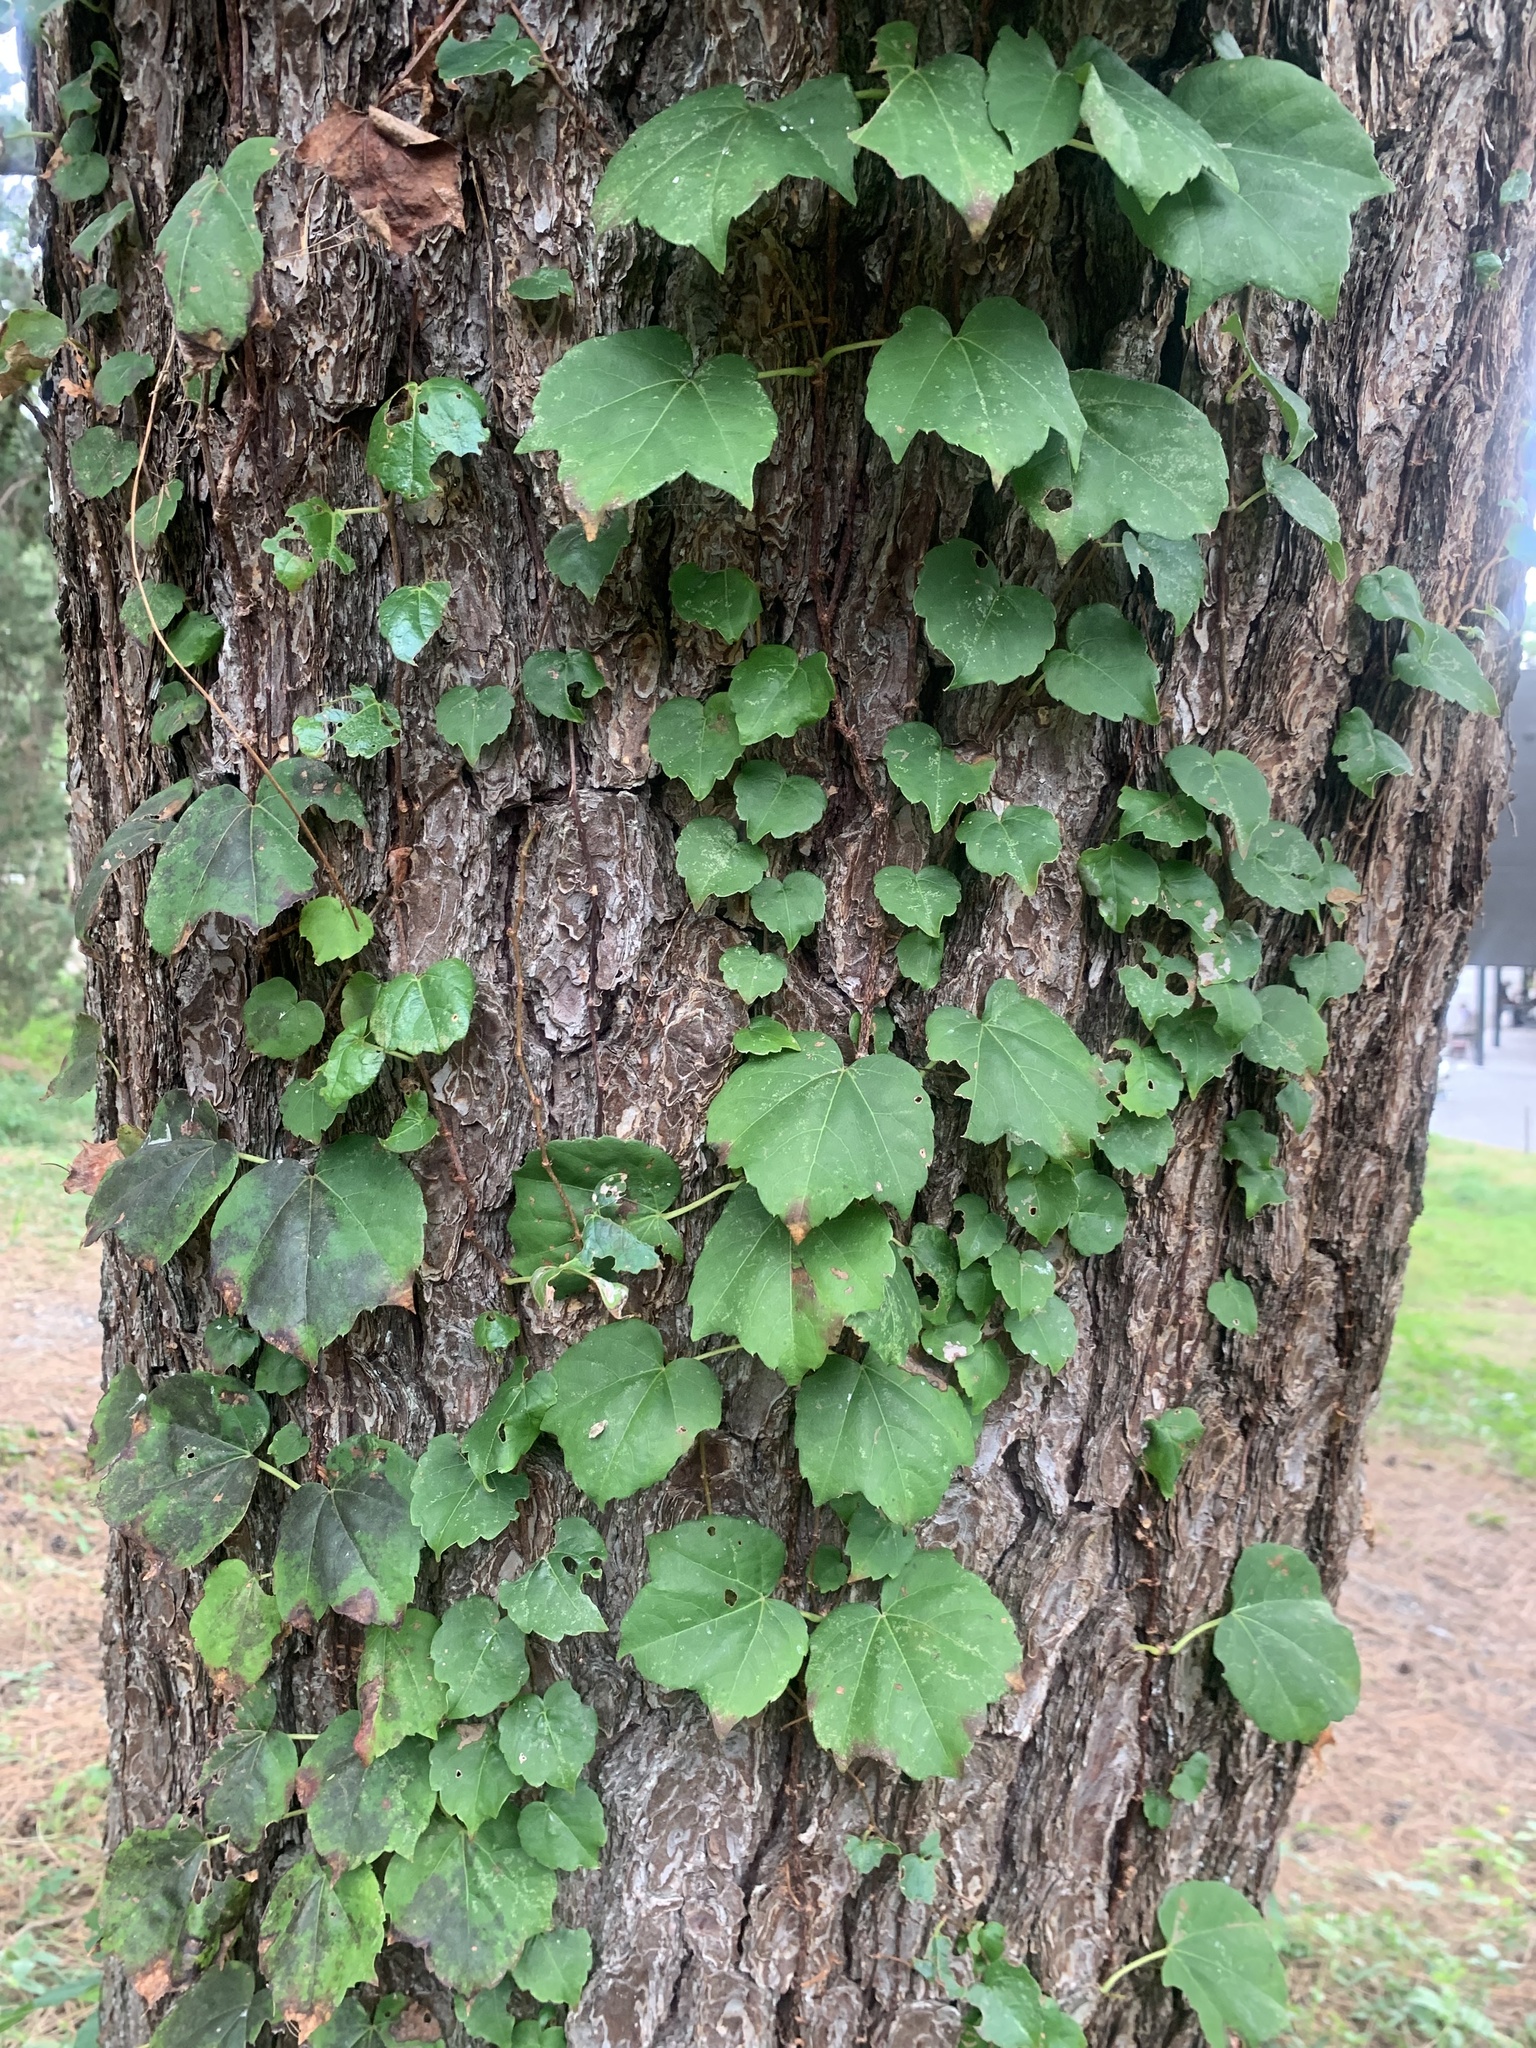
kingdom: Plantae
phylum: Tracheophyta
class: Magnoliopsida
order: Vitales
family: Vitaceae
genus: Parthenocissus
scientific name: Parthenocissus tricuspidata
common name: Boston ivy
